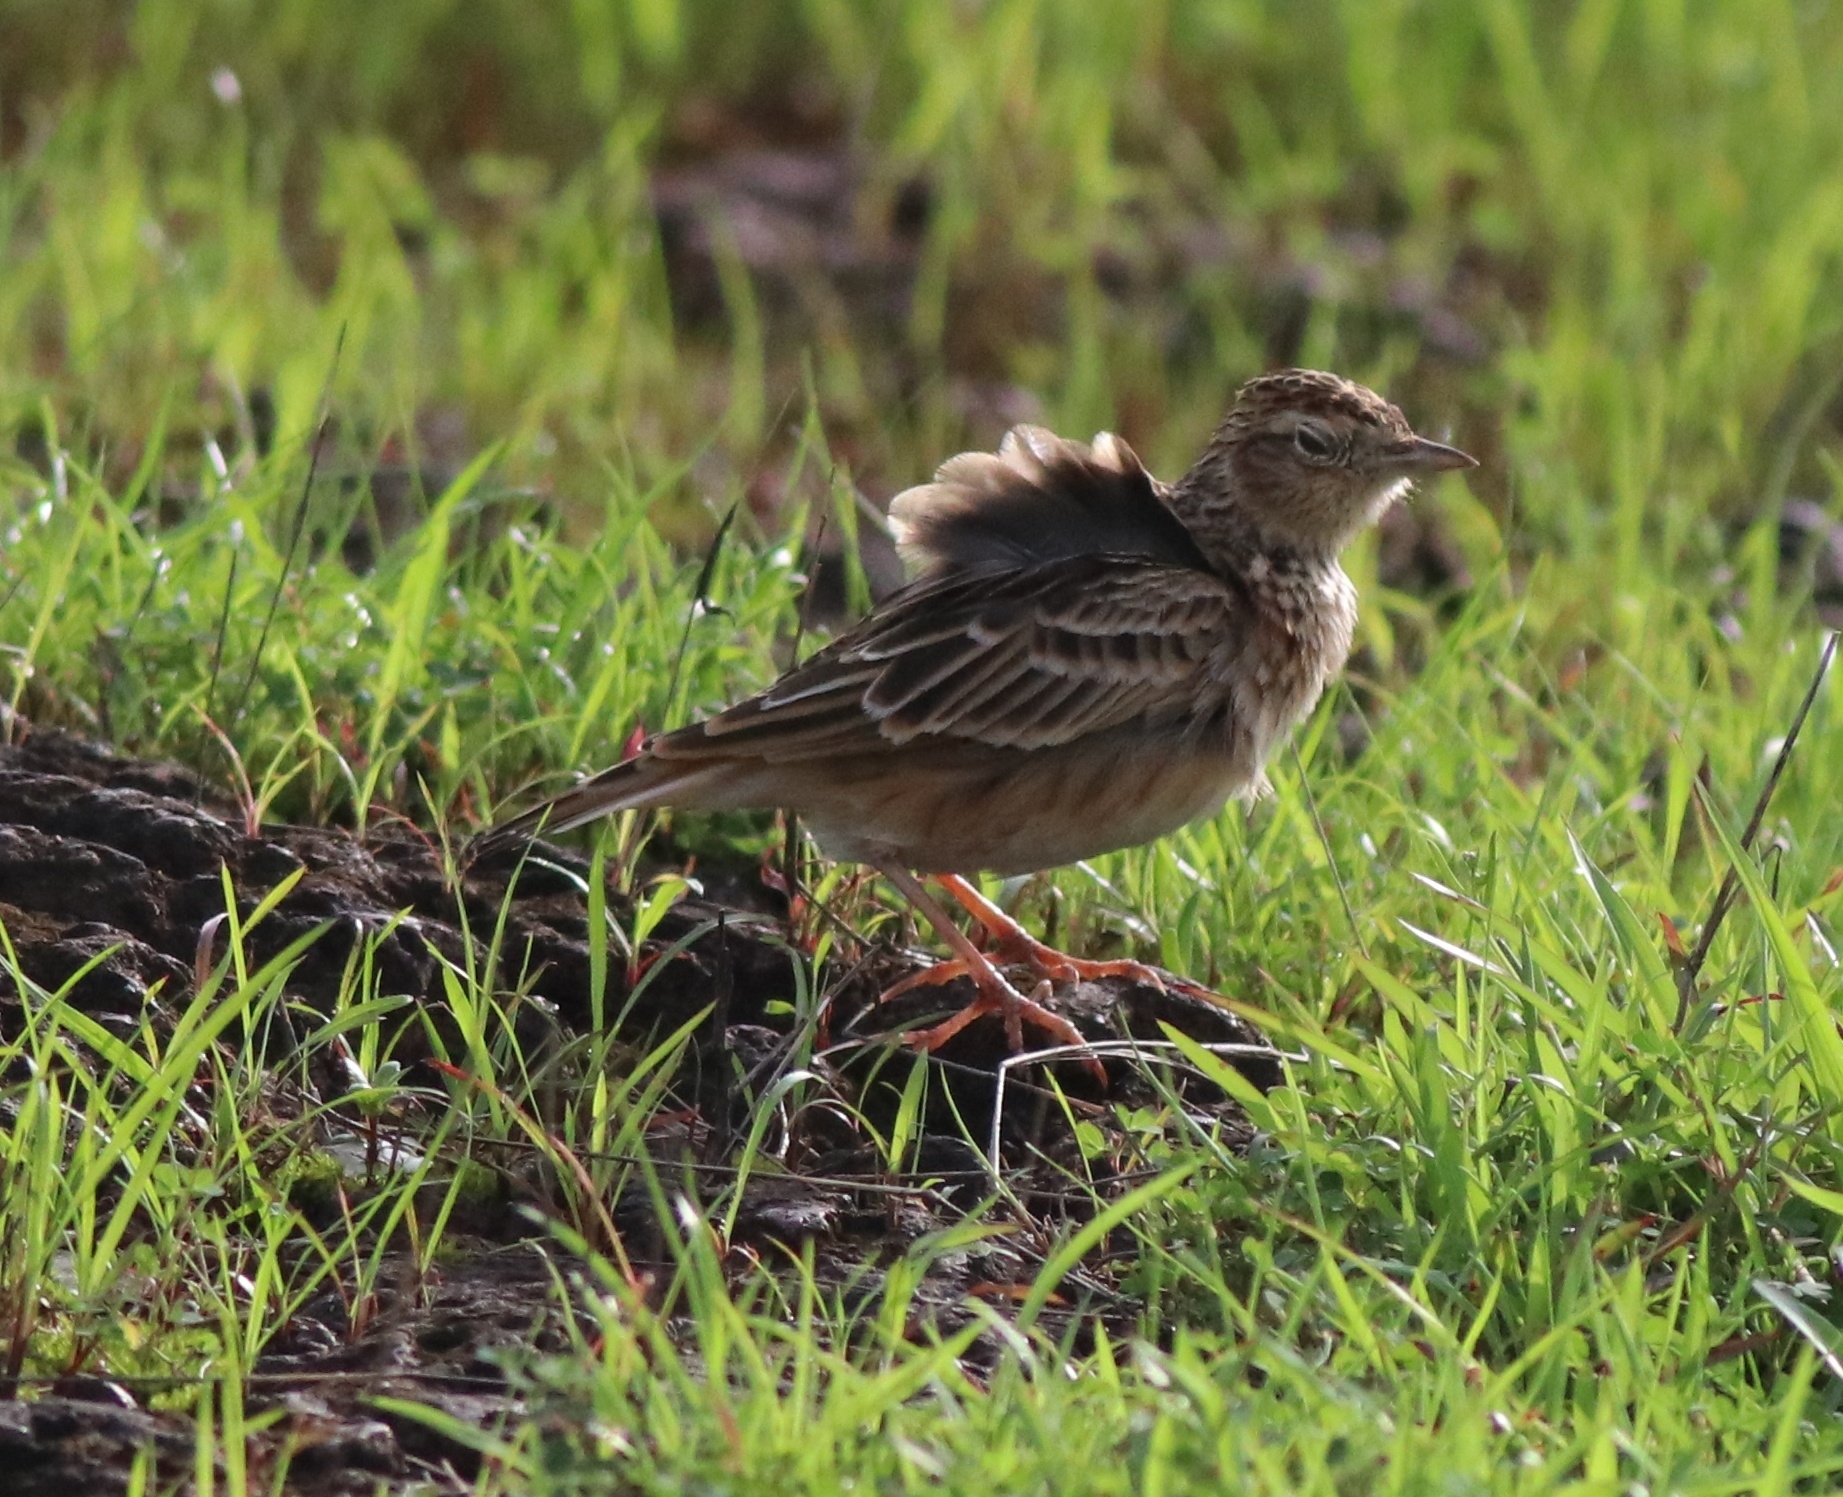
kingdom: Animalia
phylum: Chordata
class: Aves
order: Passeriformes
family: Alaudidae
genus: Alauda
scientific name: Alauda gulgula
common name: Oriental skylark
